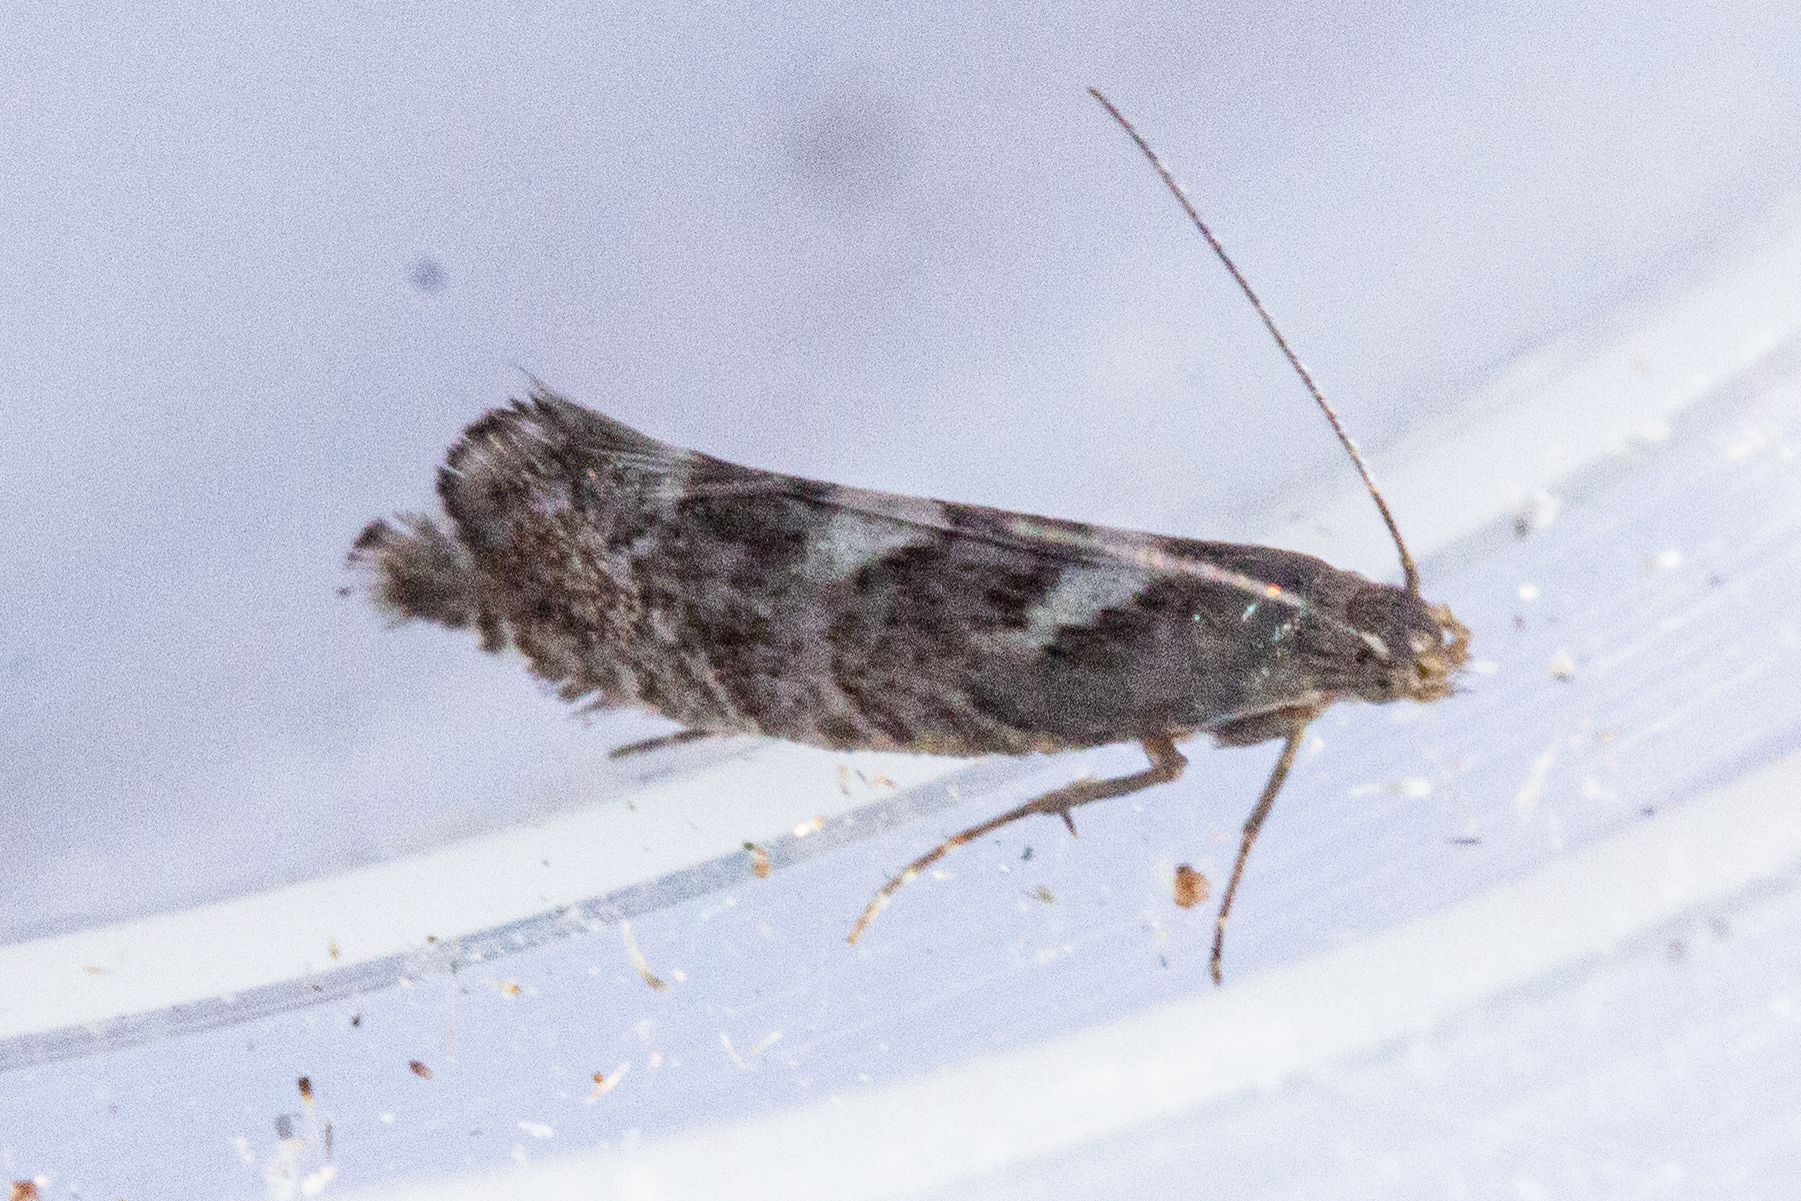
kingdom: Animalia
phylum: Arthropoda
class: Insecta
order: Lepidoptera
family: Glyphipterigidae
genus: Glyphipterix
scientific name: Glyphipterix asteronota
